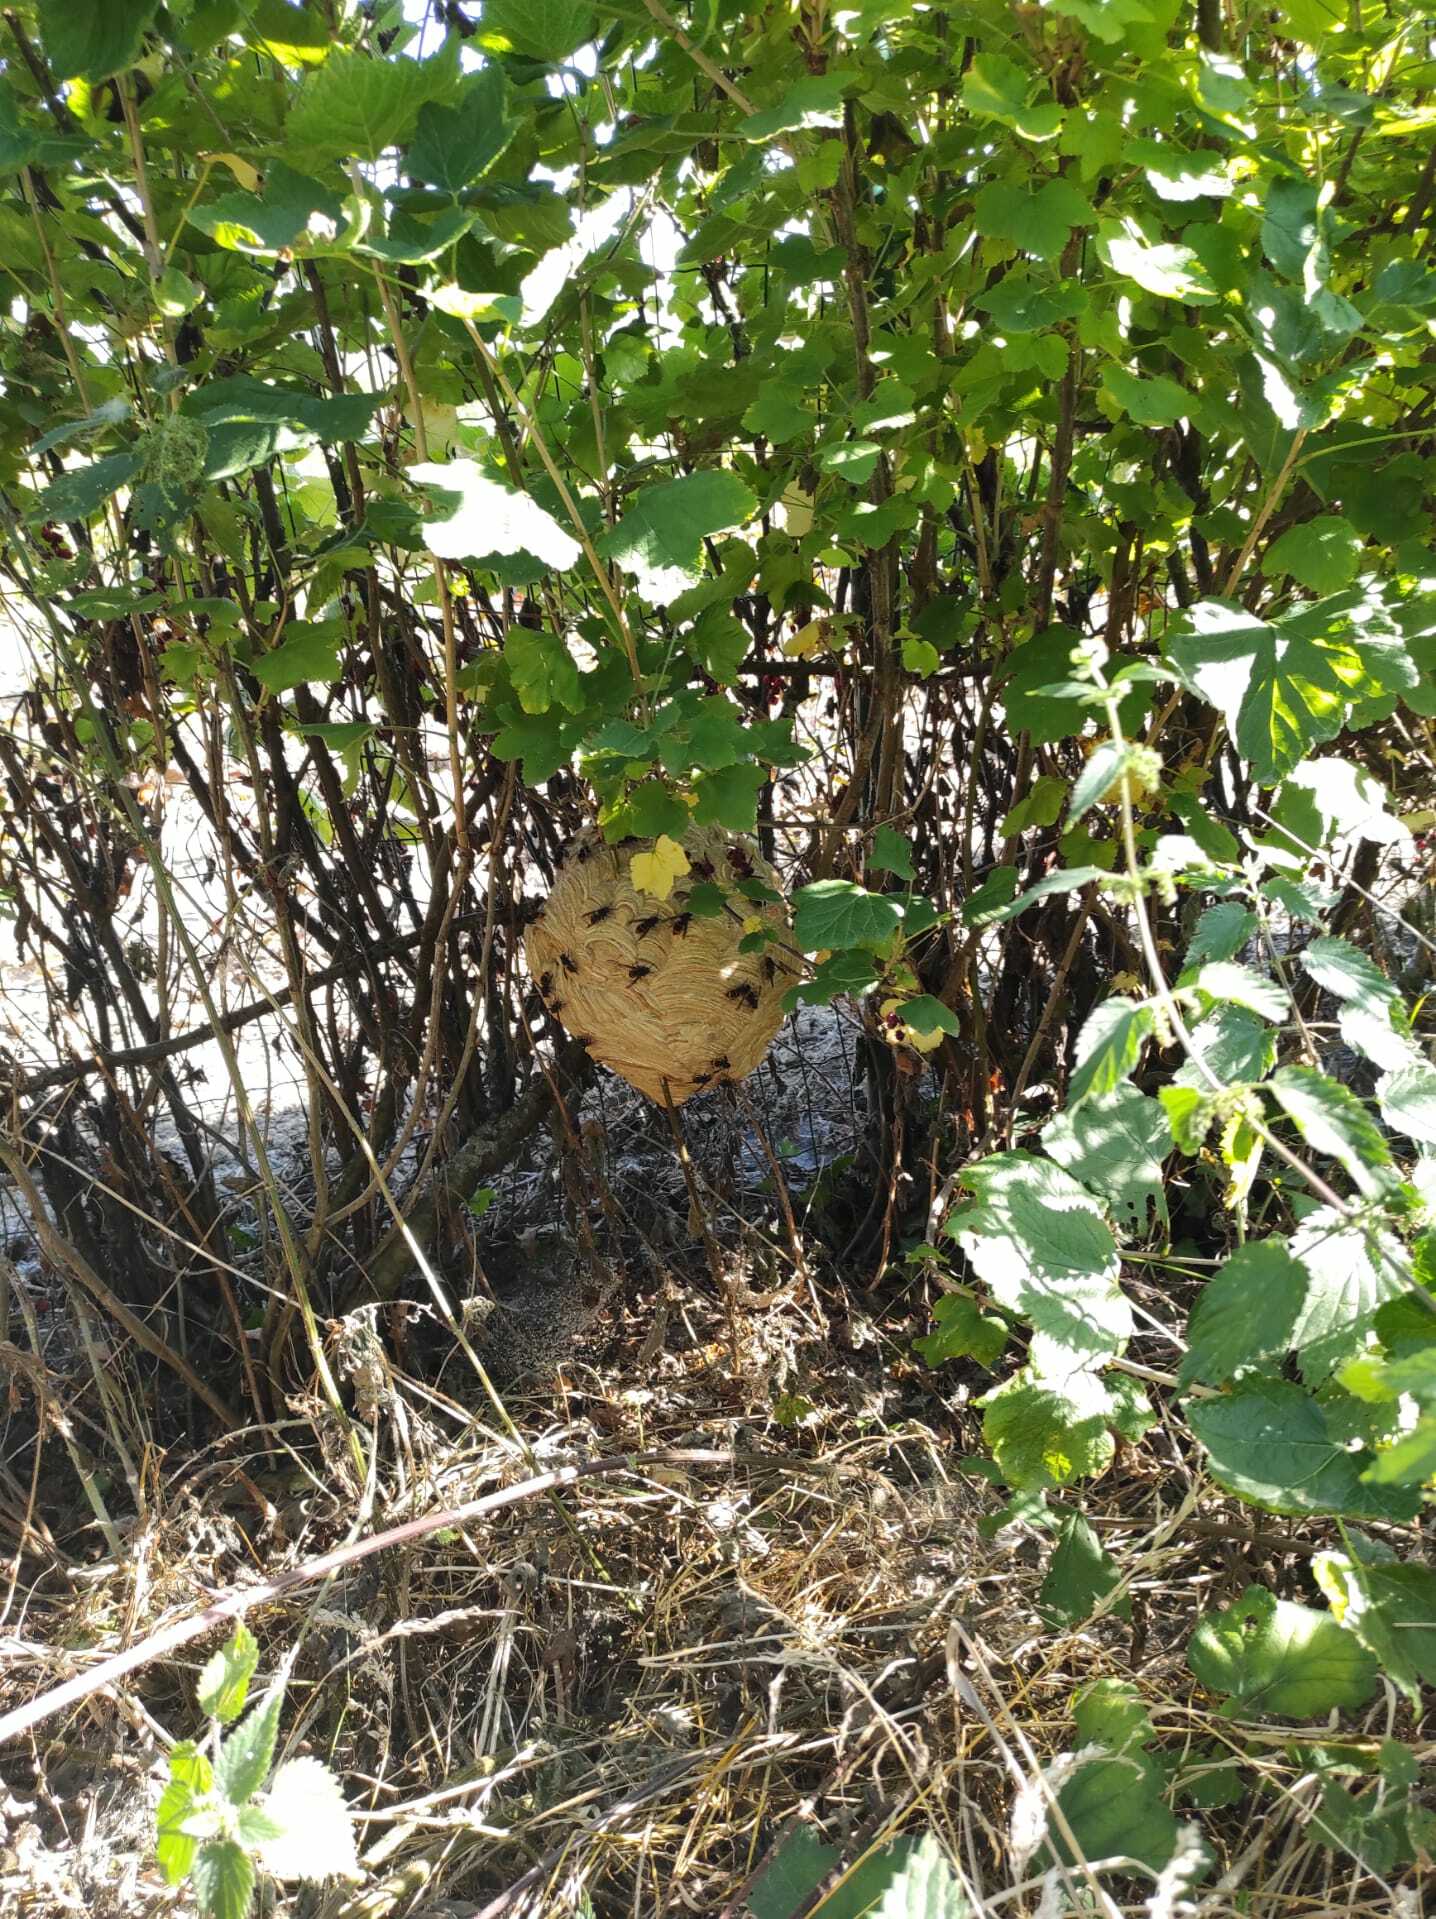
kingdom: Animalia
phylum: Arthropoda
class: Insecta
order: Hymenoptera
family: Vespidae
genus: Vespa
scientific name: Vespa velutina
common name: Asian hornet
